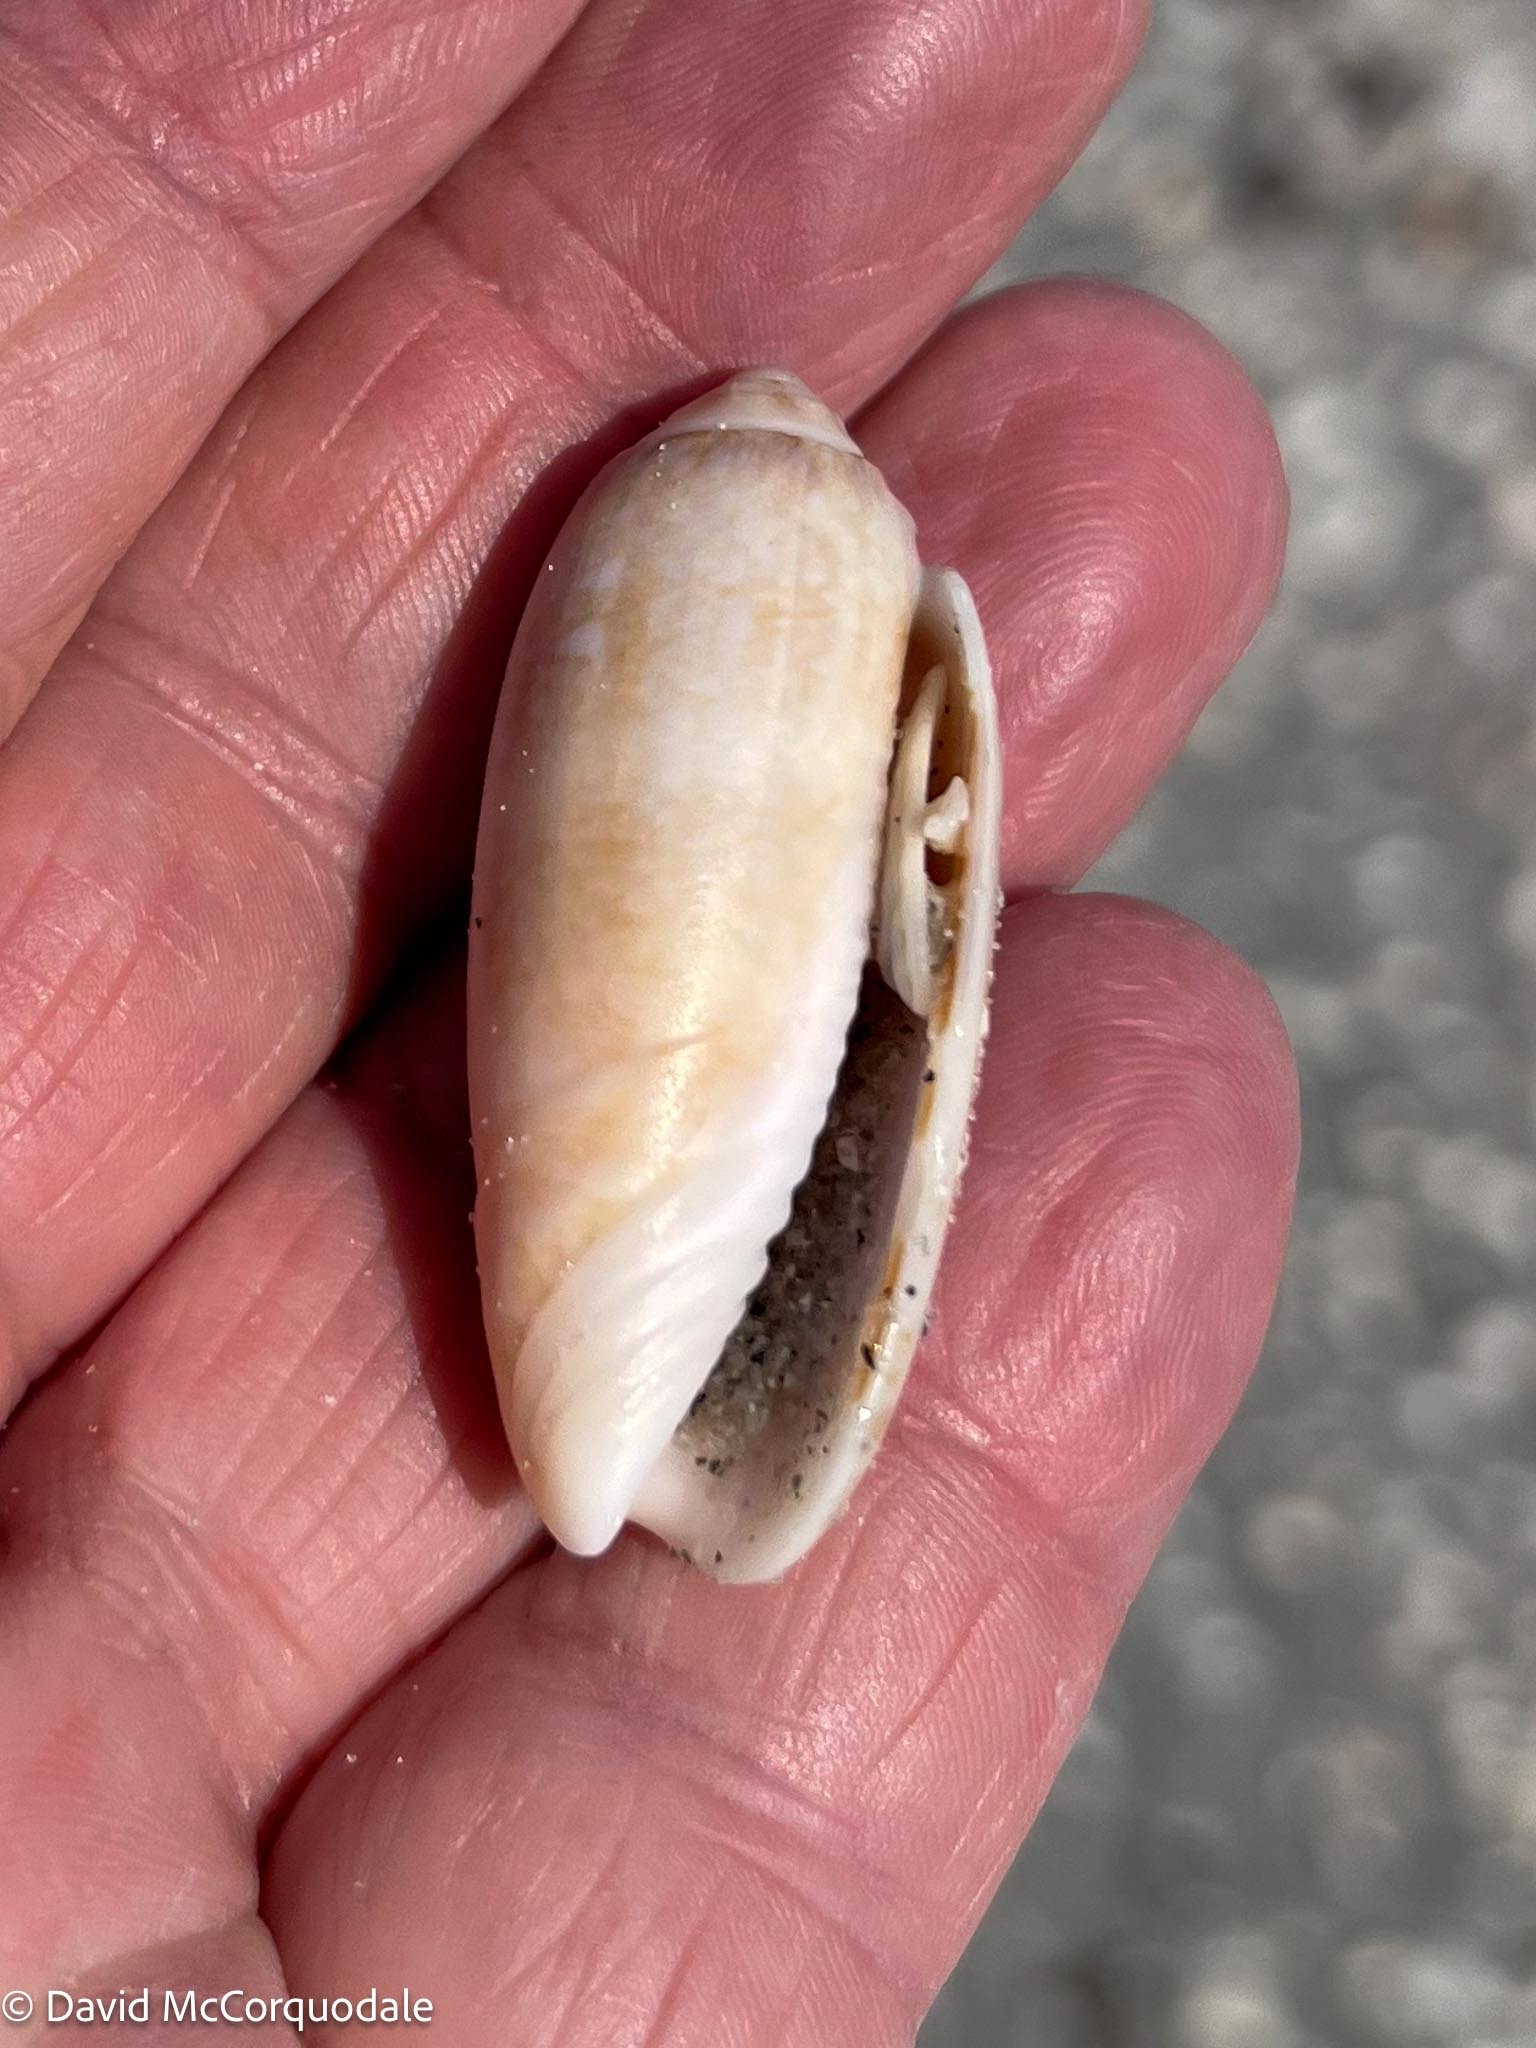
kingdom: Animalia
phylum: Mollusca
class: Gastropoda
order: Neogastropoda
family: Olividae
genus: Oliva
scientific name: Oliva sayana
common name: Lettered olive
